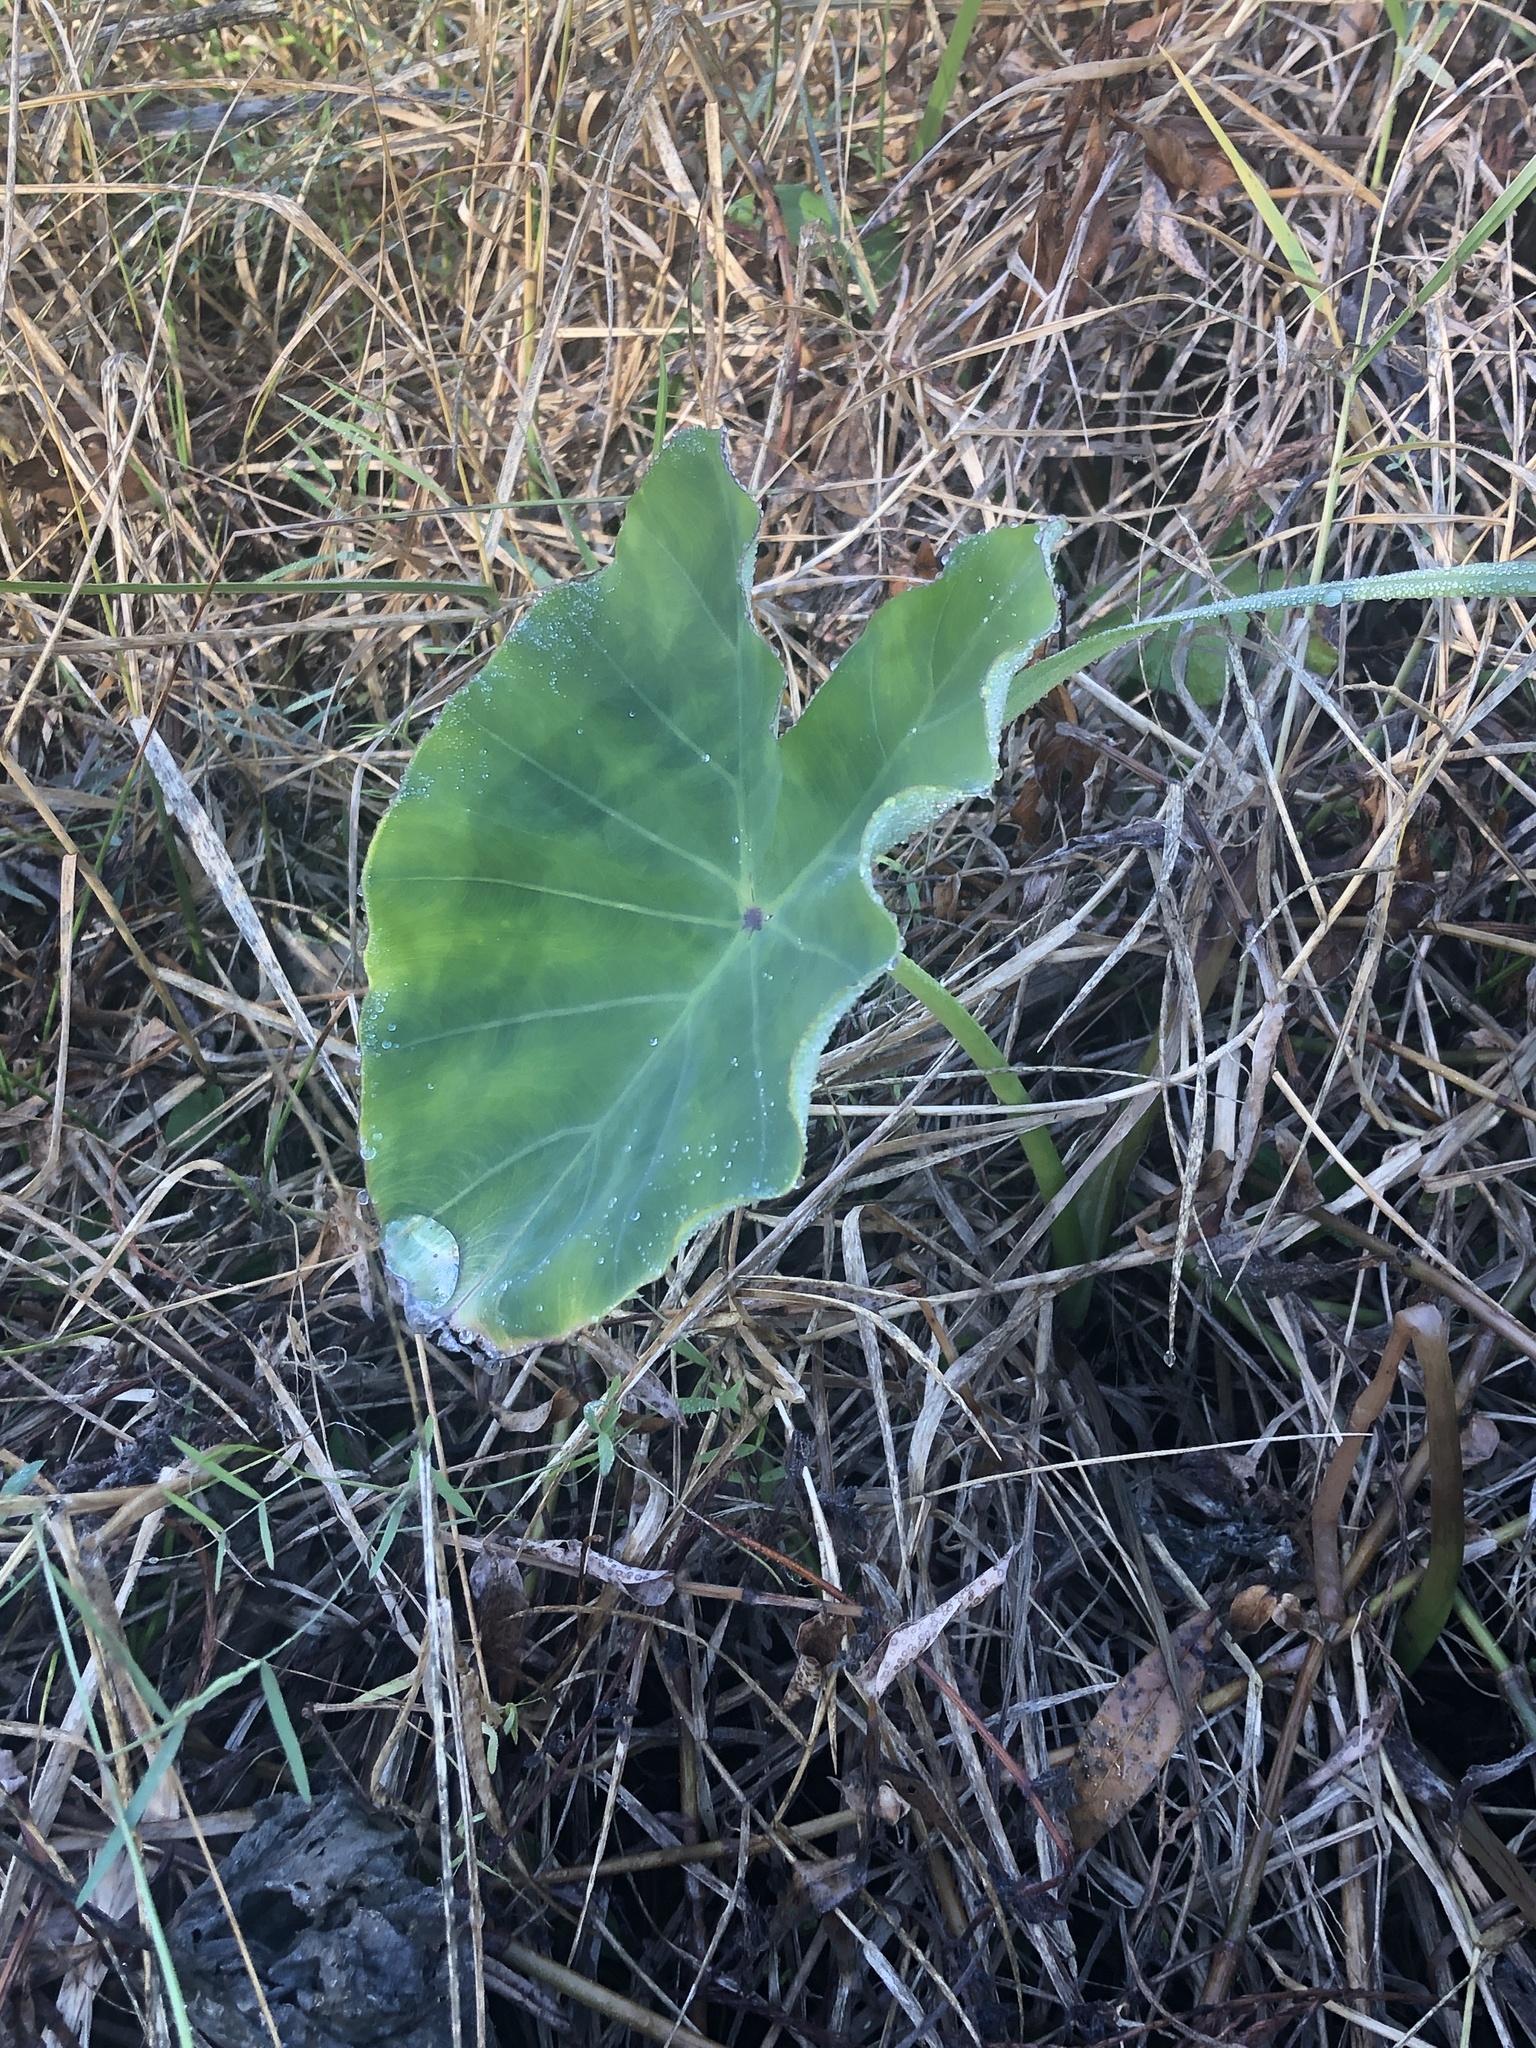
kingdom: Plantae
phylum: Tracheophyta
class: Liliopsida
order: Alismatales
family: Araceae
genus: Colocasia
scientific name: Colocasia esculenta
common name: Taro
